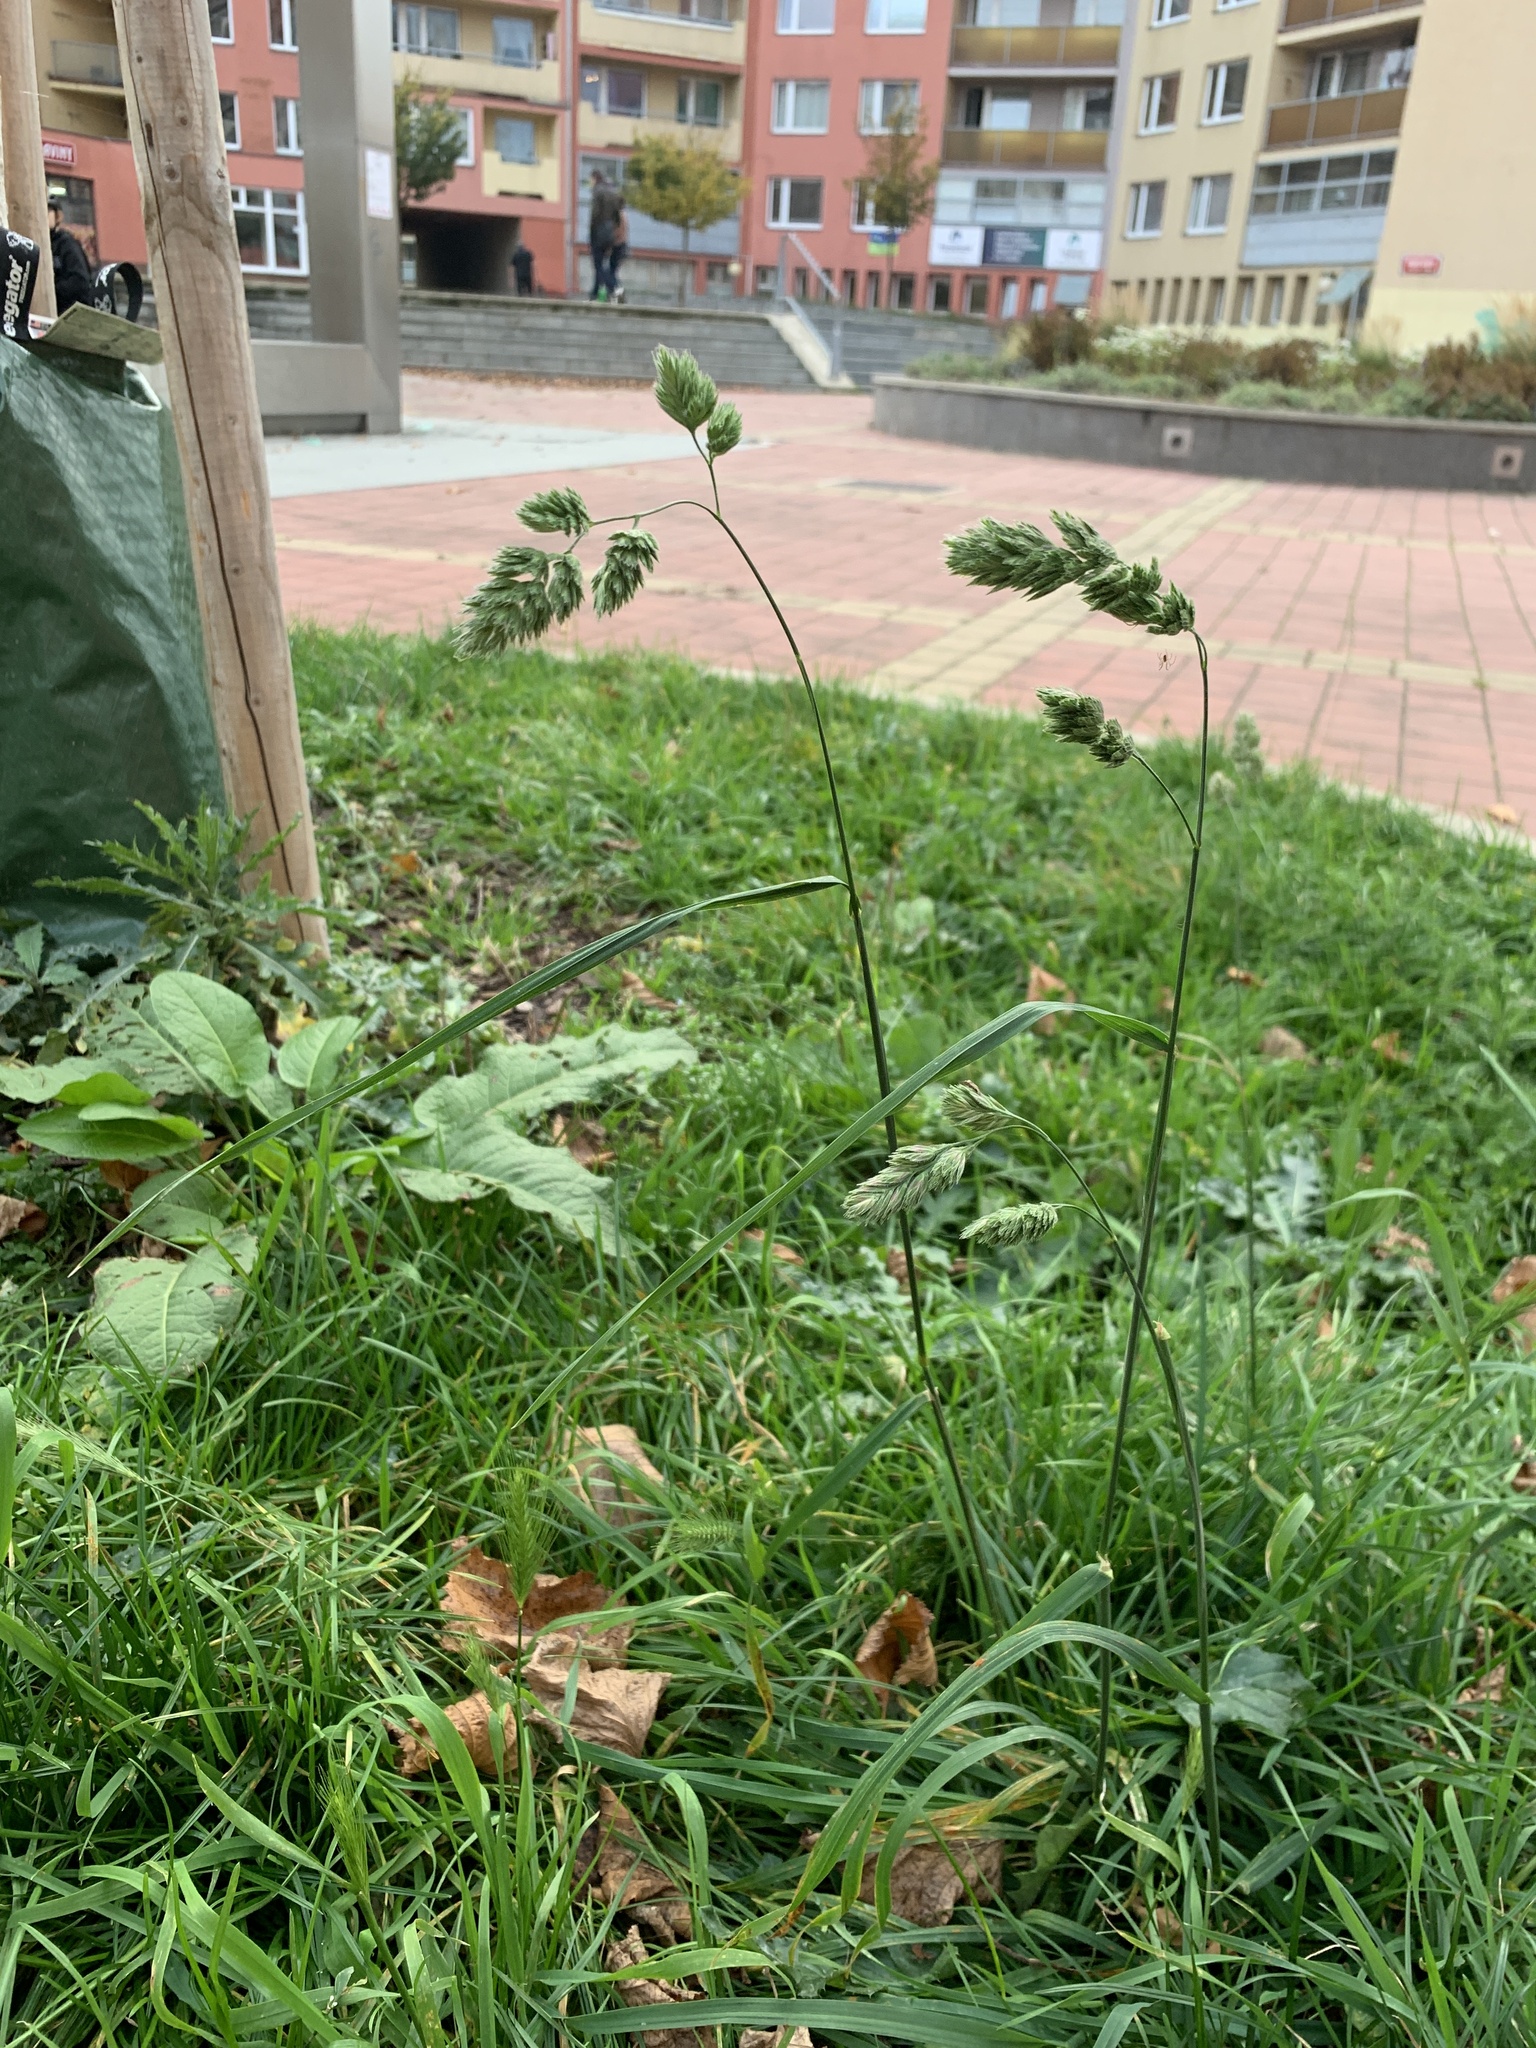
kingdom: Plantae
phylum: Tracheophyta
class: Liliopsida
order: Poales
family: Poaceae
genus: Dactylis
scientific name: Dactylis glomerata
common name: Orchardgrass
